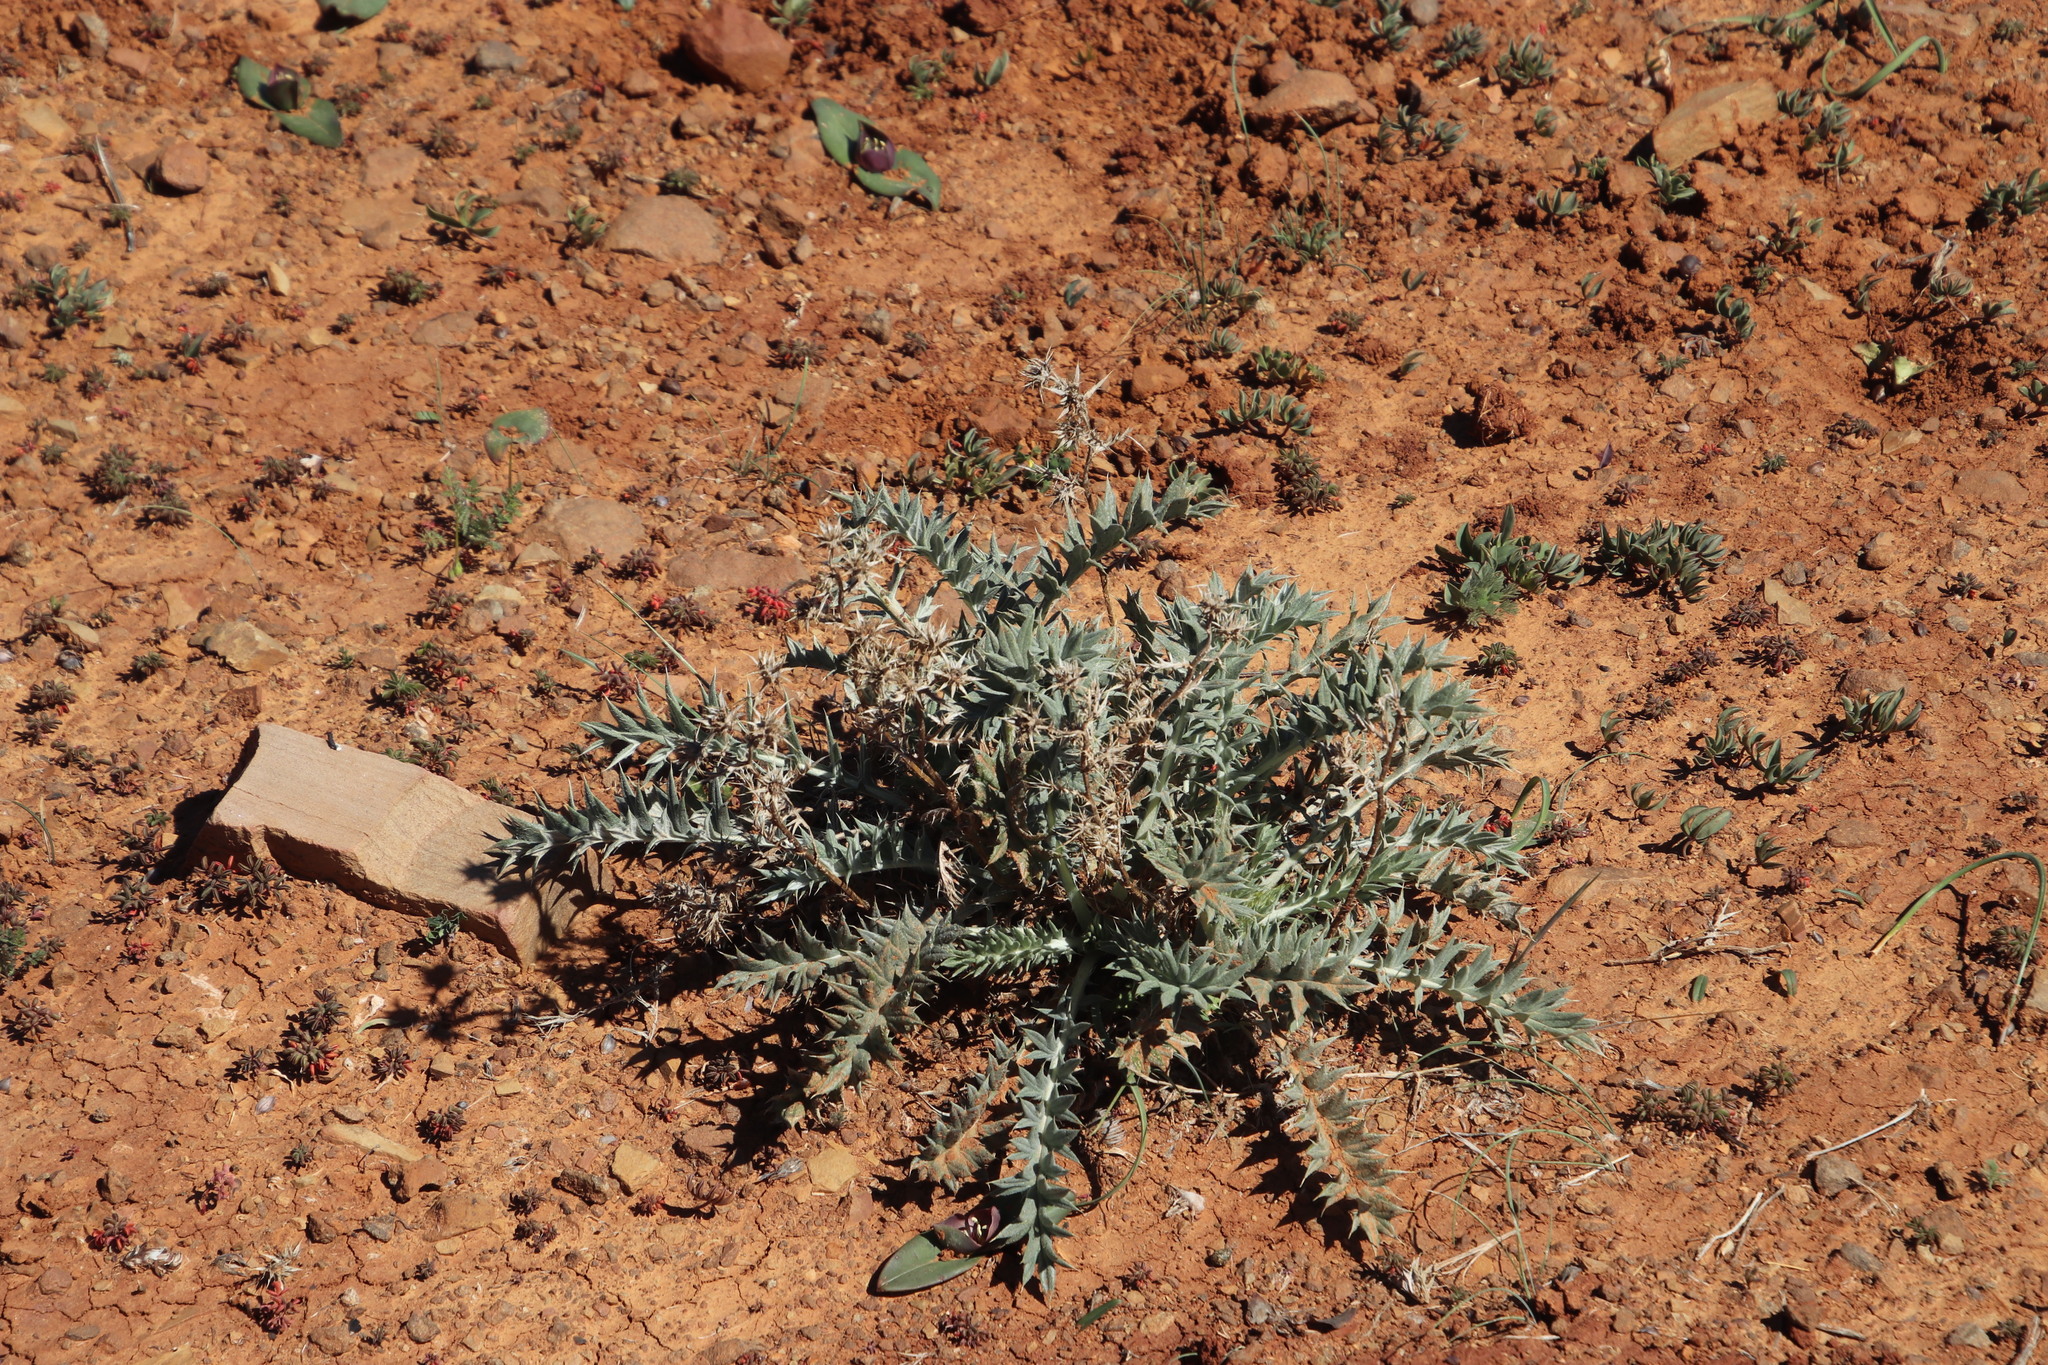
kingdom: Plantae
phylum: Tracheophyta
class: Magnoliopsida
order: Asterales
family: Asteraceae
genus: Berkheya
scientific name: Berkheya pinnatifida
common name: Lobed african thistle
